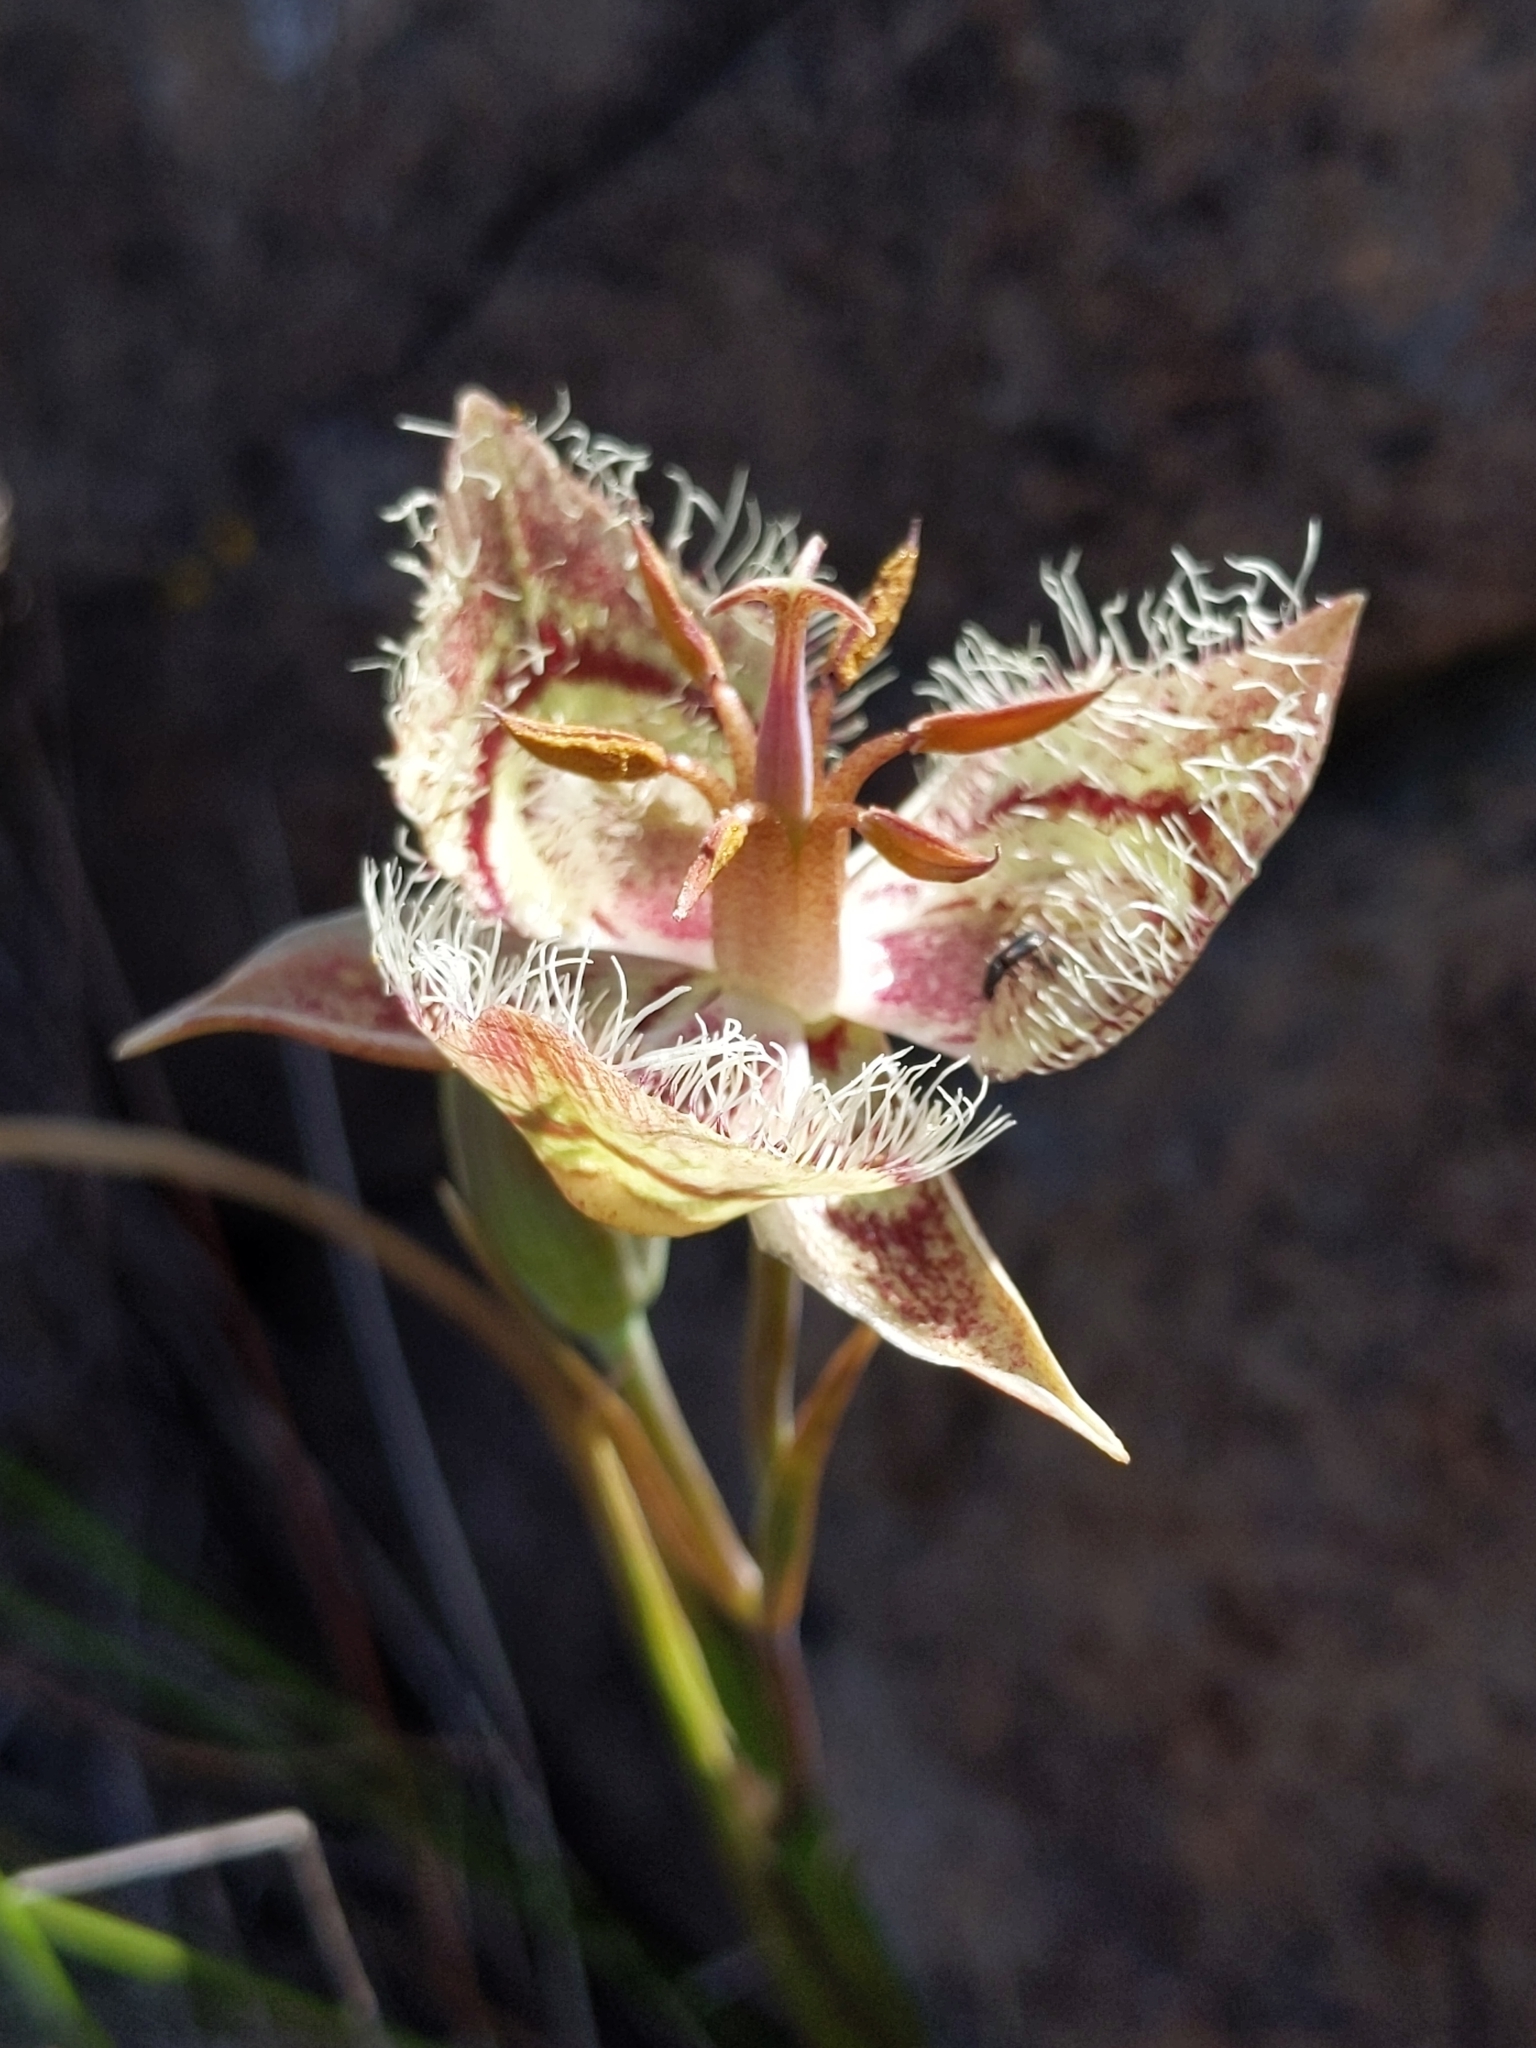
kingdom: Plantae
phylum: Tracheophyta
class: Liliopsida
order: Liliales
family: Liliaceae
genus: Calochortus
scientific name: Calochortus tiburonensis
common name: Tiburon mariposa-lily
